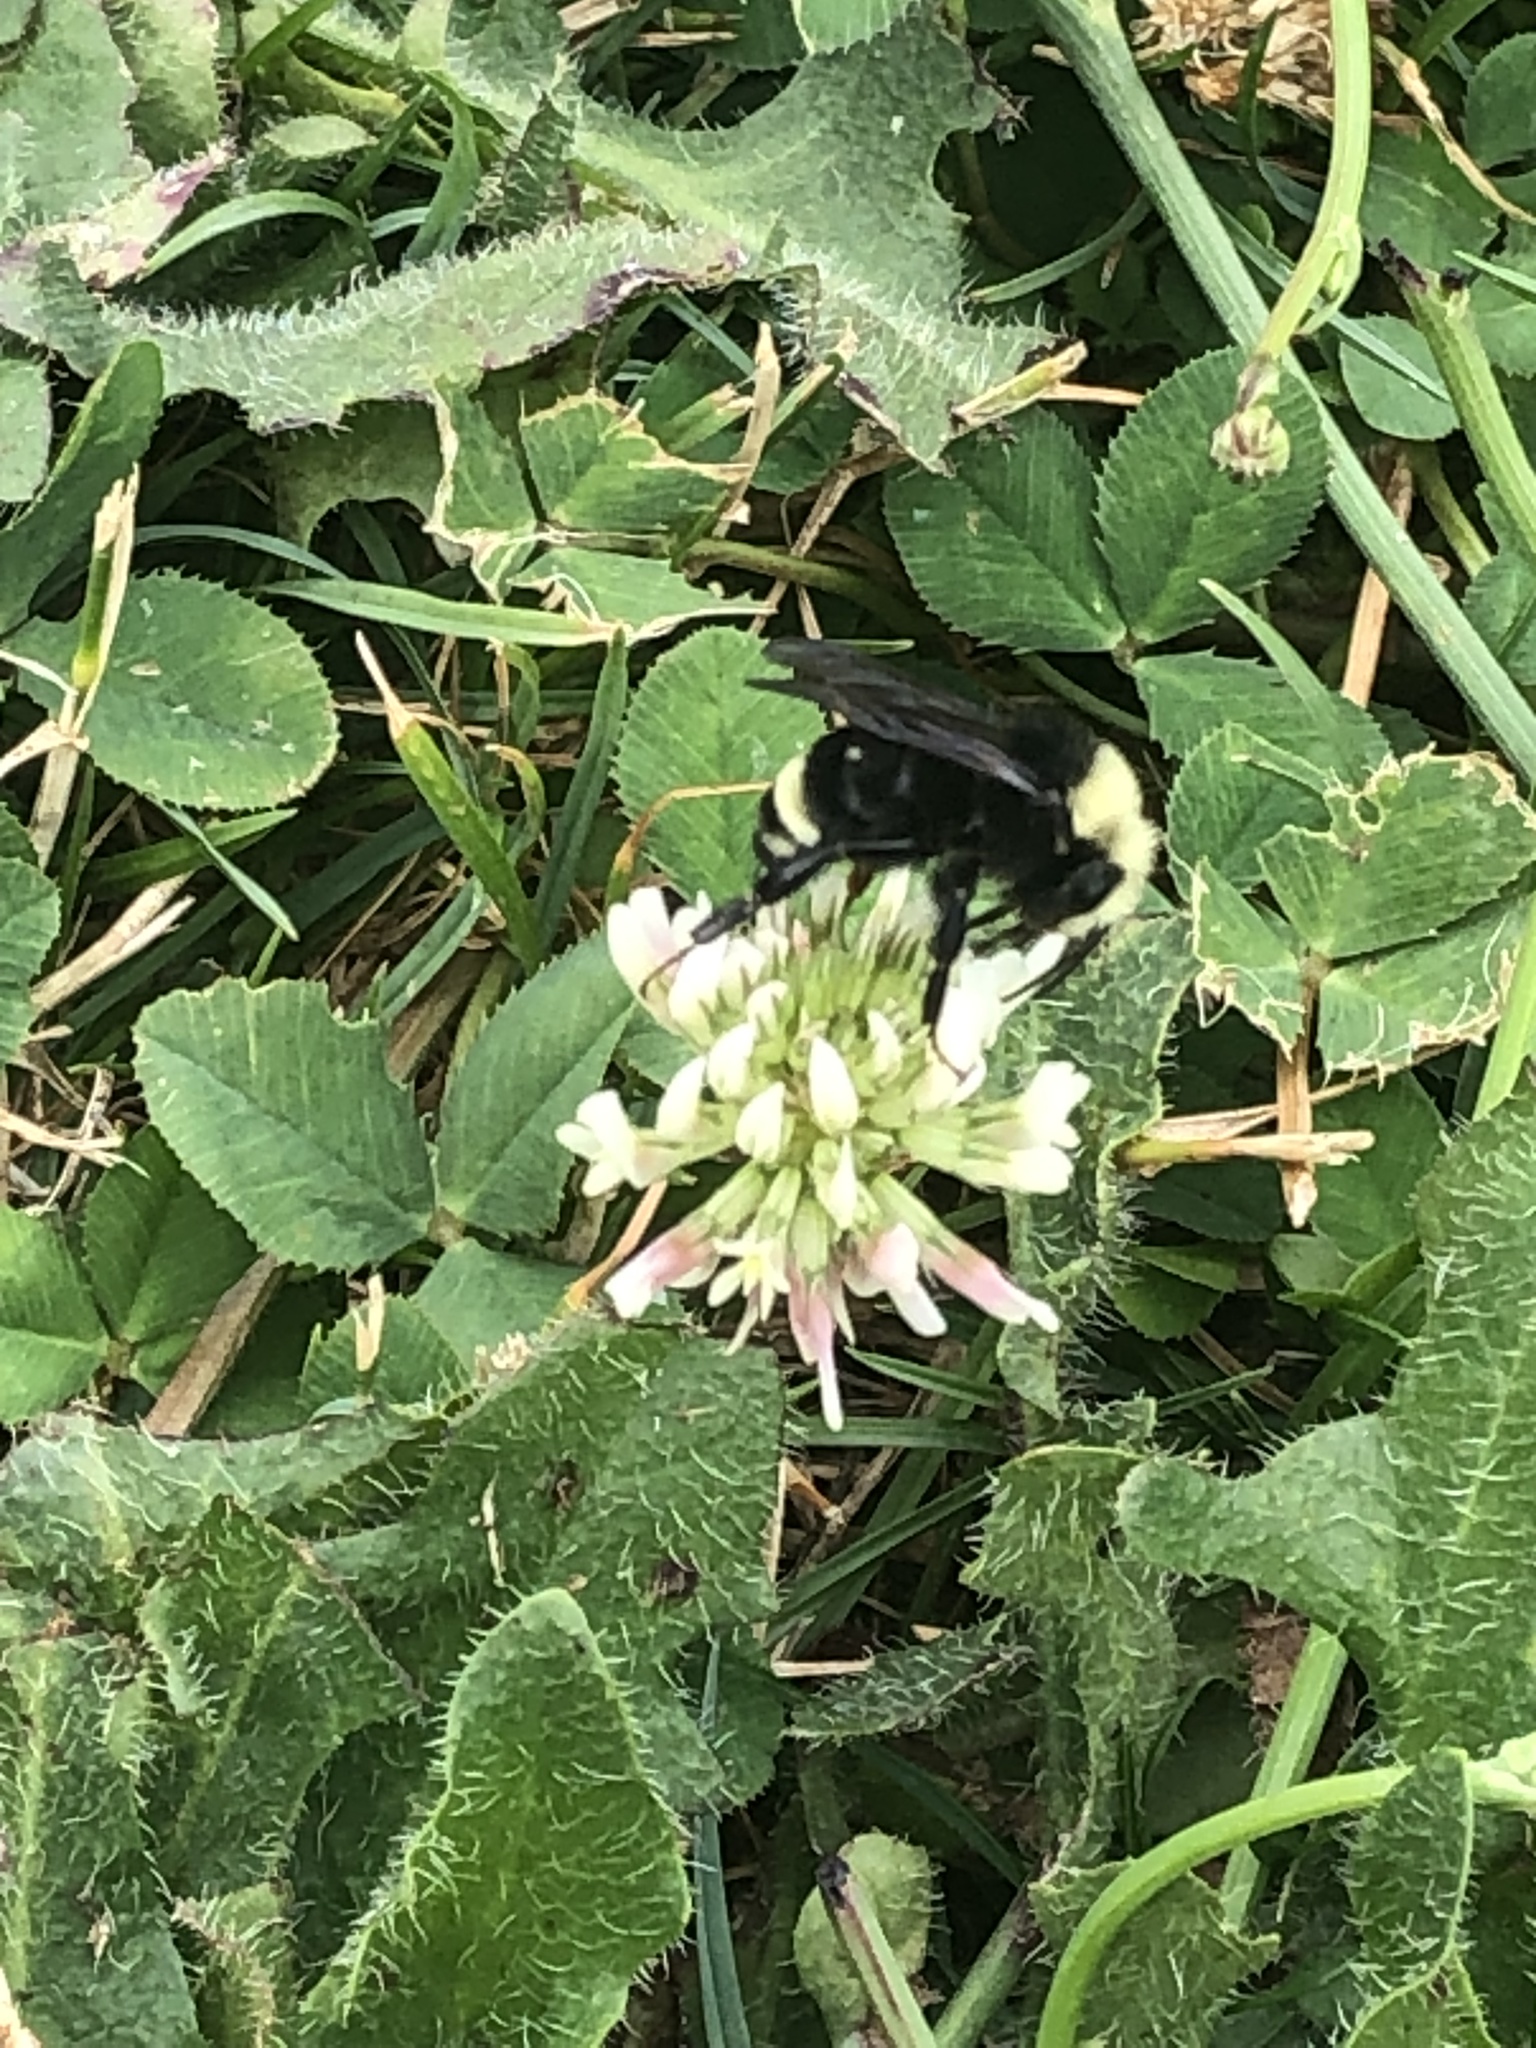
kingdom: Animalia
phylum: Arthropoda
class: Insecta
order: Hymenoptera
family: Apidae
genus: Pyrobombus
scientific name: Pyrobombus
